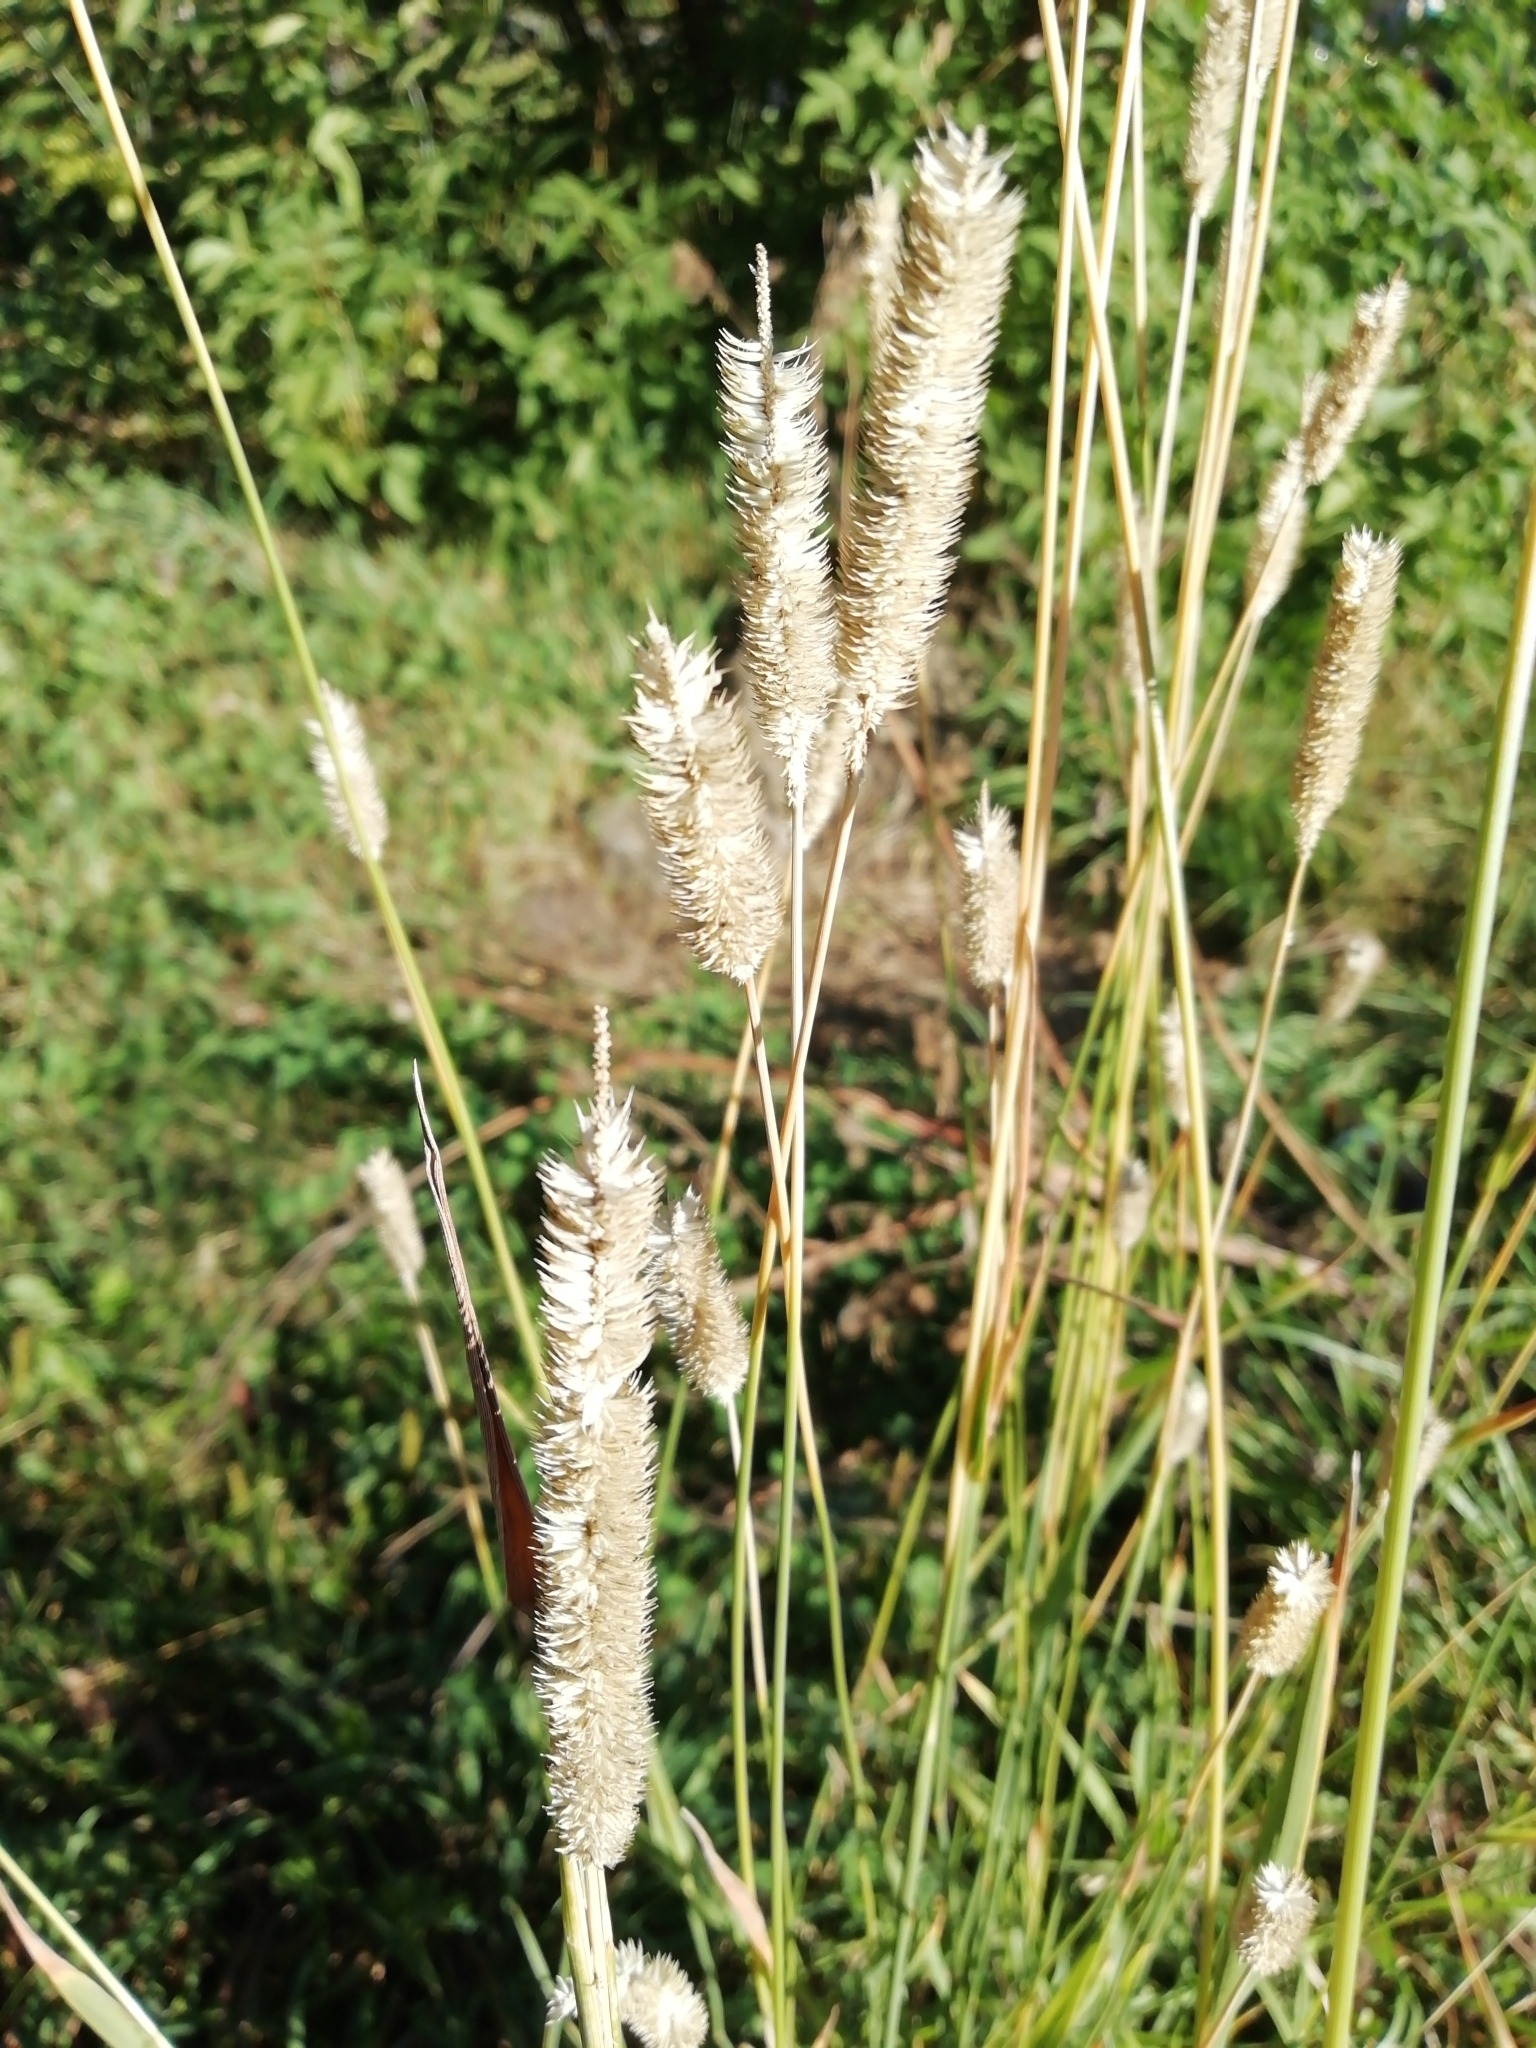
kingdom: Plantae
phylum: Tracheophyta
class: Liliopsida
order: Poales
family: Poaceae
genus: Phleum
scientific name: Phleum pratense
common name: Timothy grass
